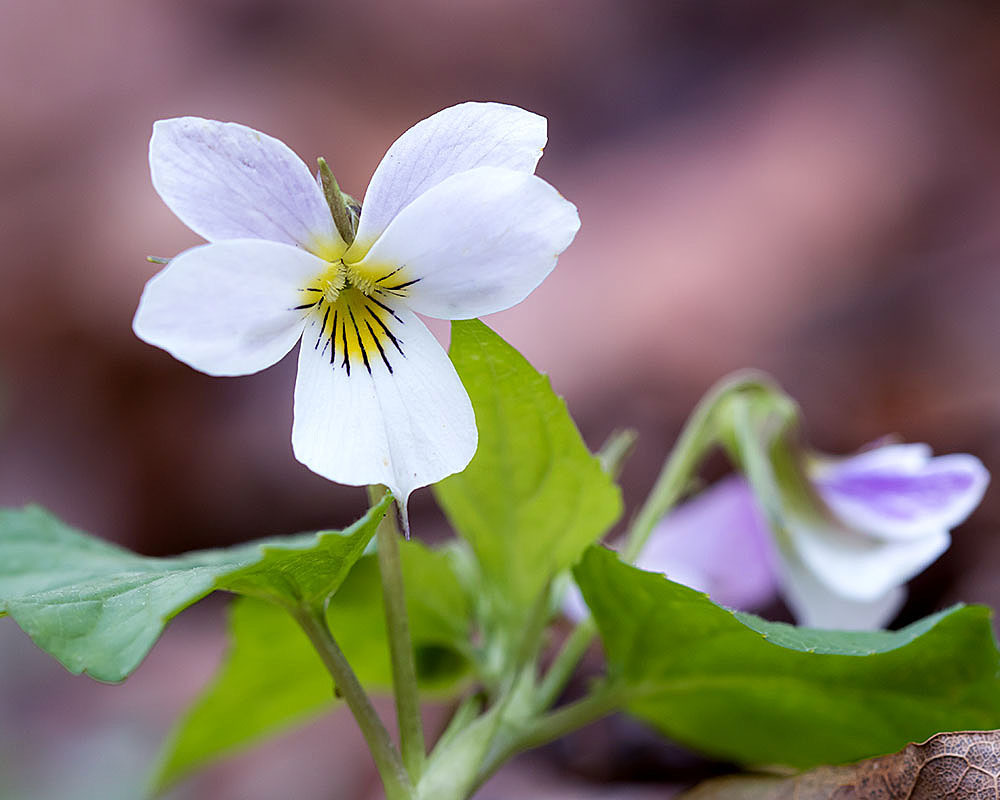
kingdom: Plantae
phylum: Tracheophyta
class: Magnoliopsida
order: Malpighiales
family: Violaceae
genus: Viola
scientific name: Viola canadensis
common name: Canada violet
